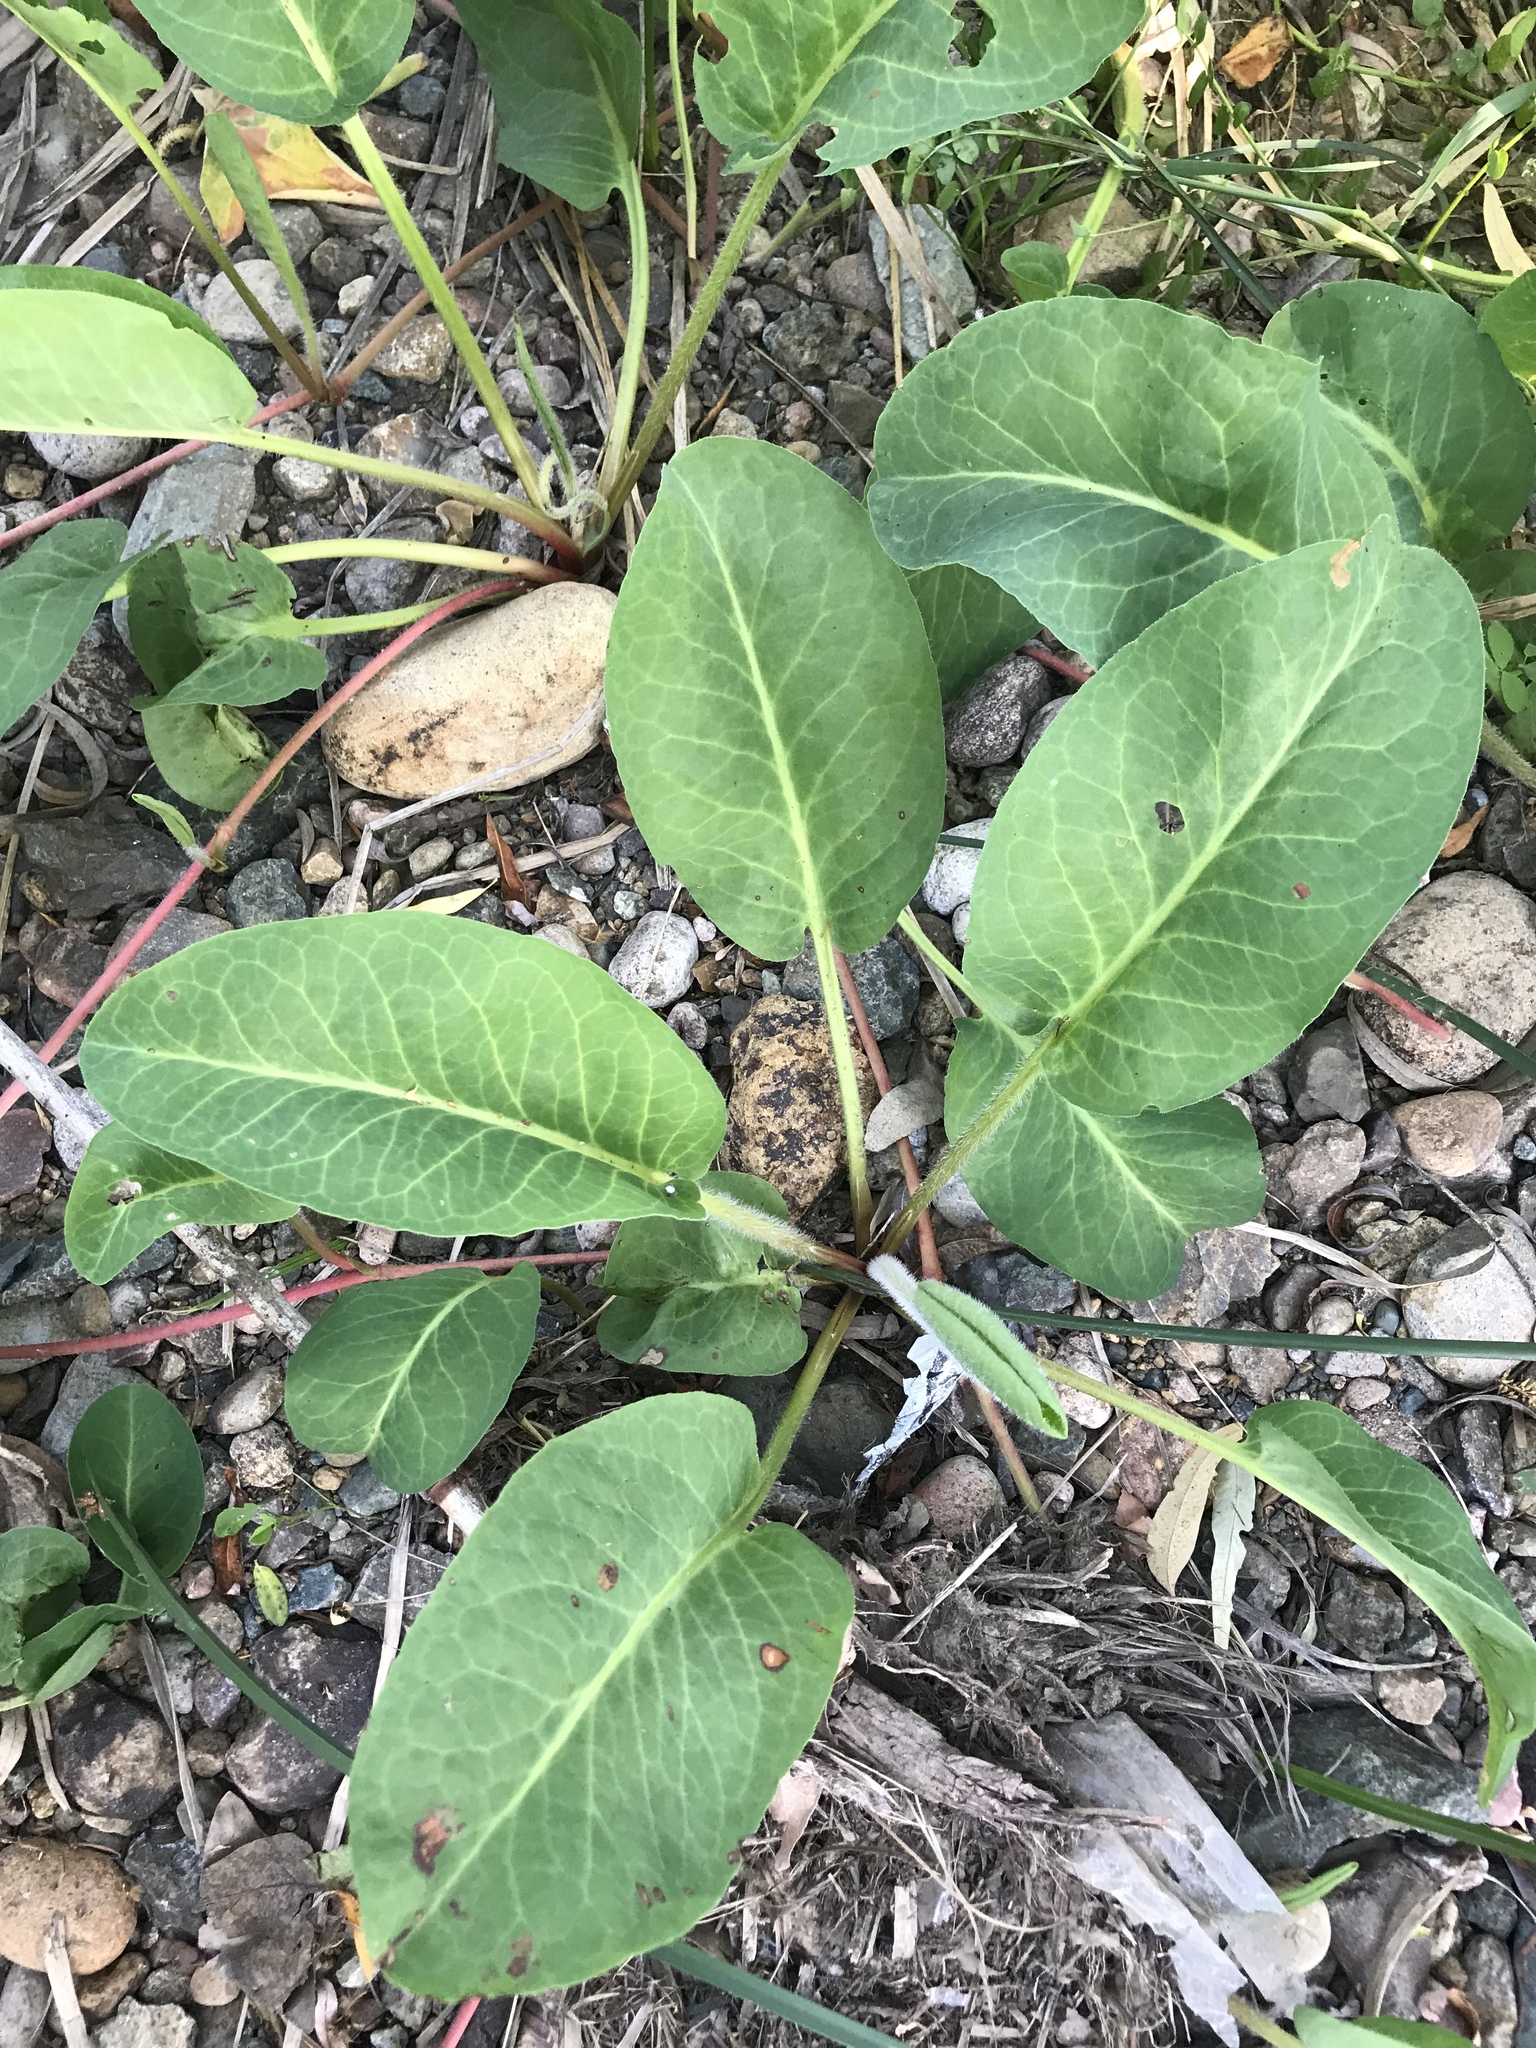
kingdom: Plantae
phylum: Tracheophyta
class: Magnoliopsida
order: Piperales
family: Saururaceae
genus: Anemopsis
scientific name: Anemopsis californica
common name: Apache-beads
